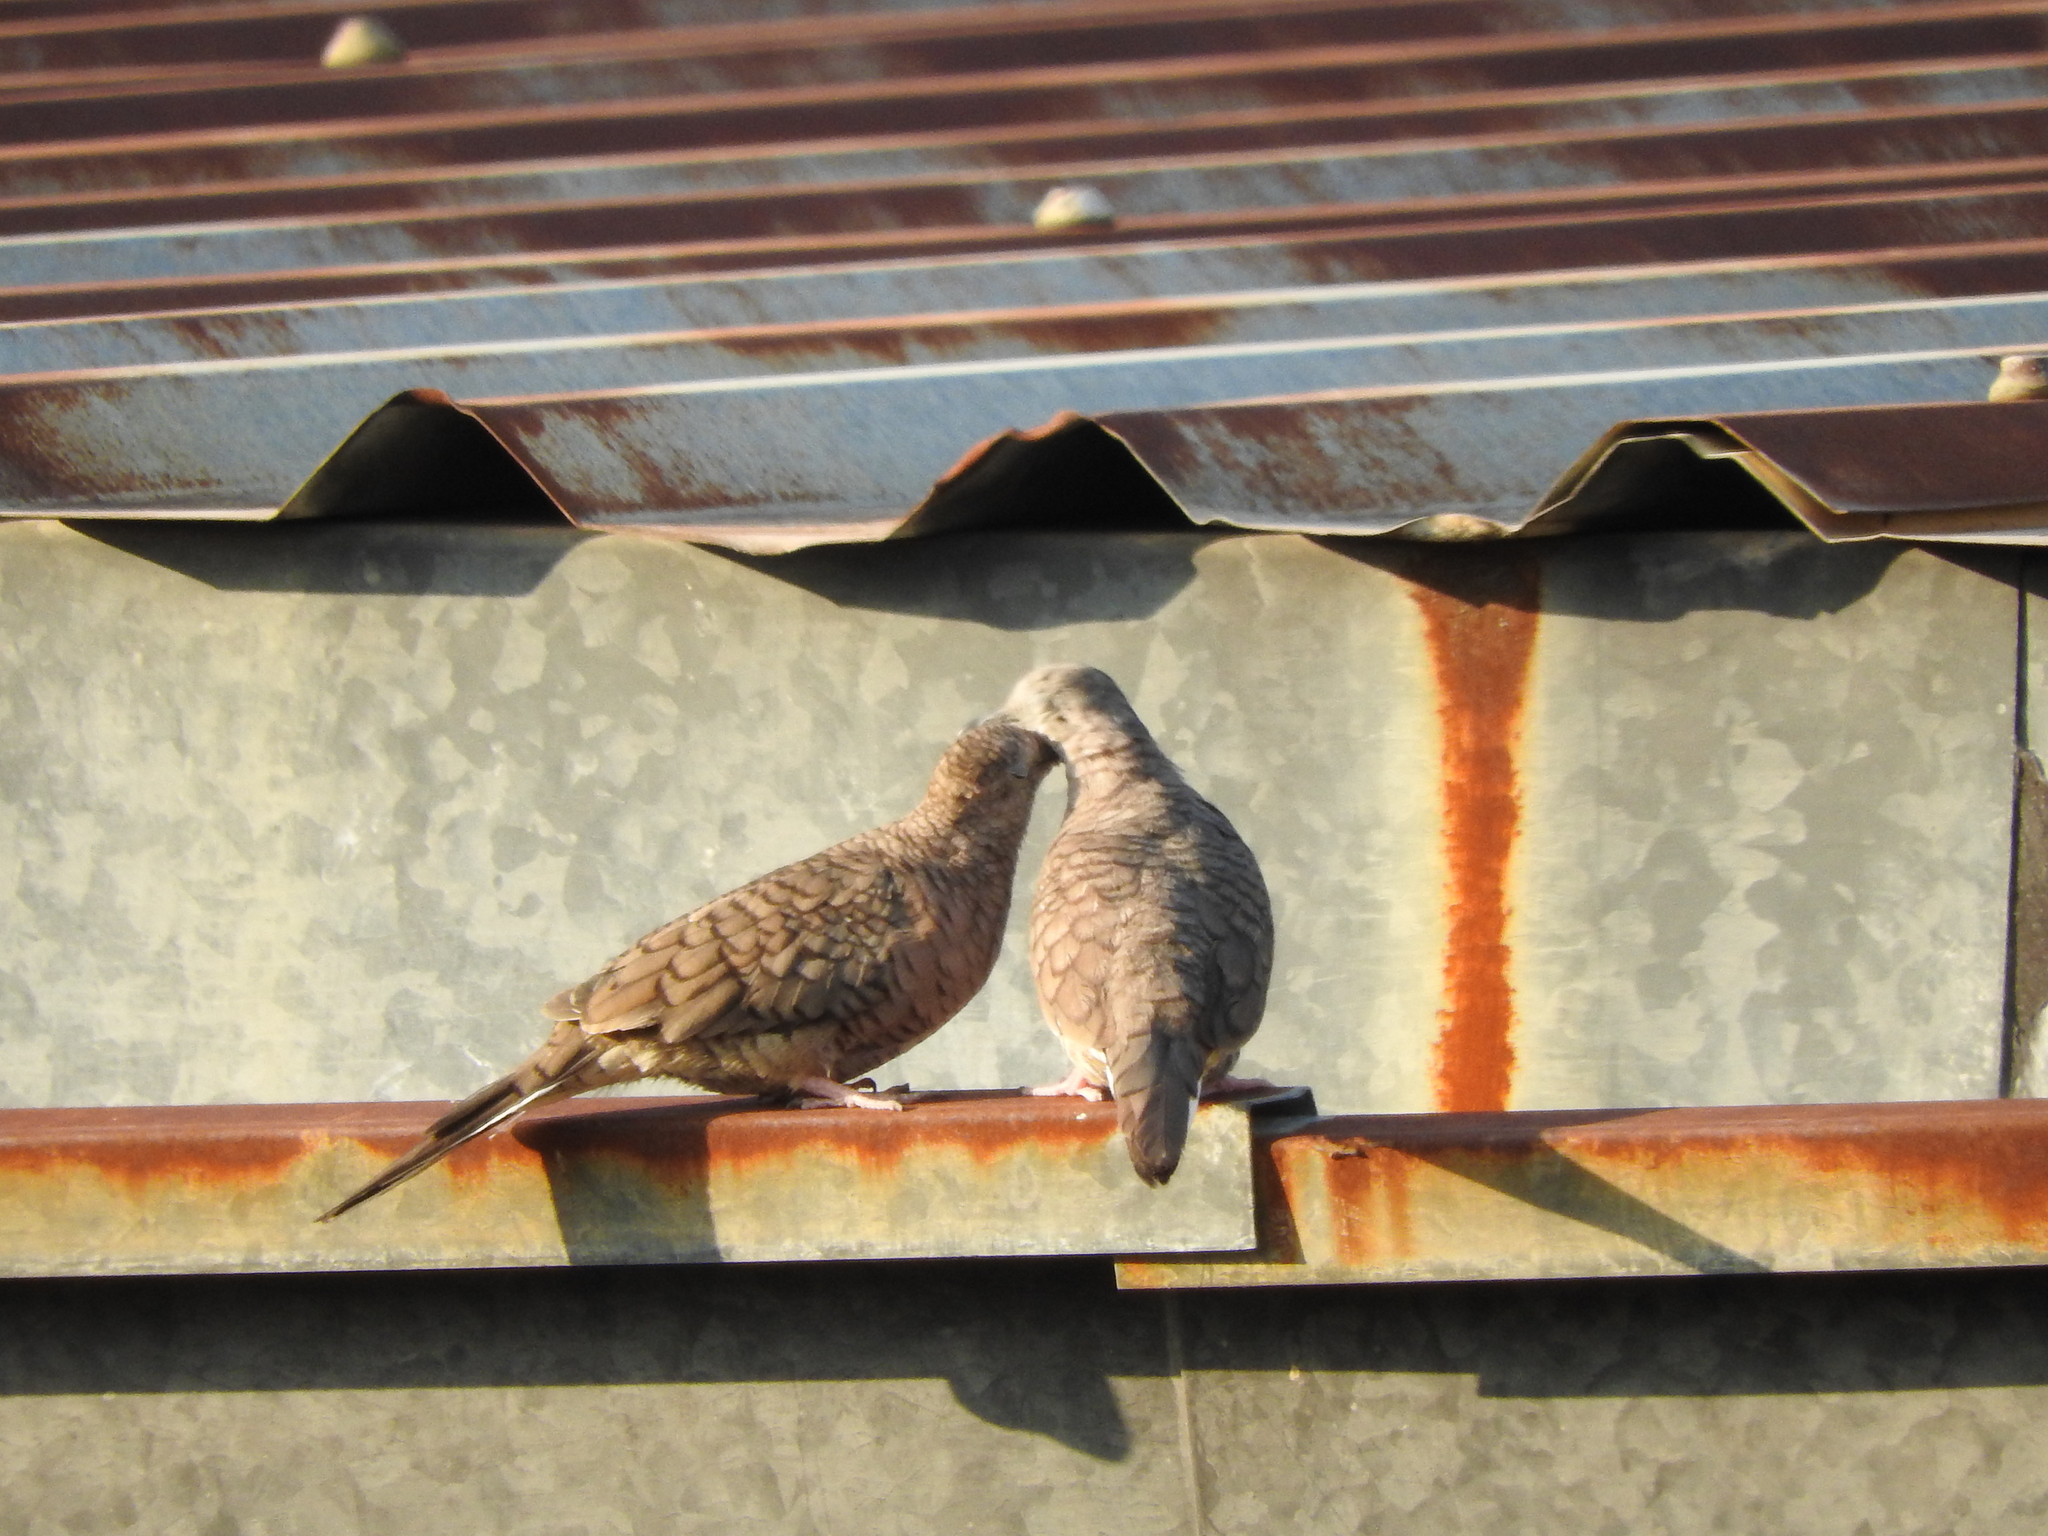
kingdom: Animalia
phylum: Chordata
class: Aves
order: Columbiformes
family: Columbidae
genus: Columbina
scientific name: Columbina inca
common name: Inca dove
